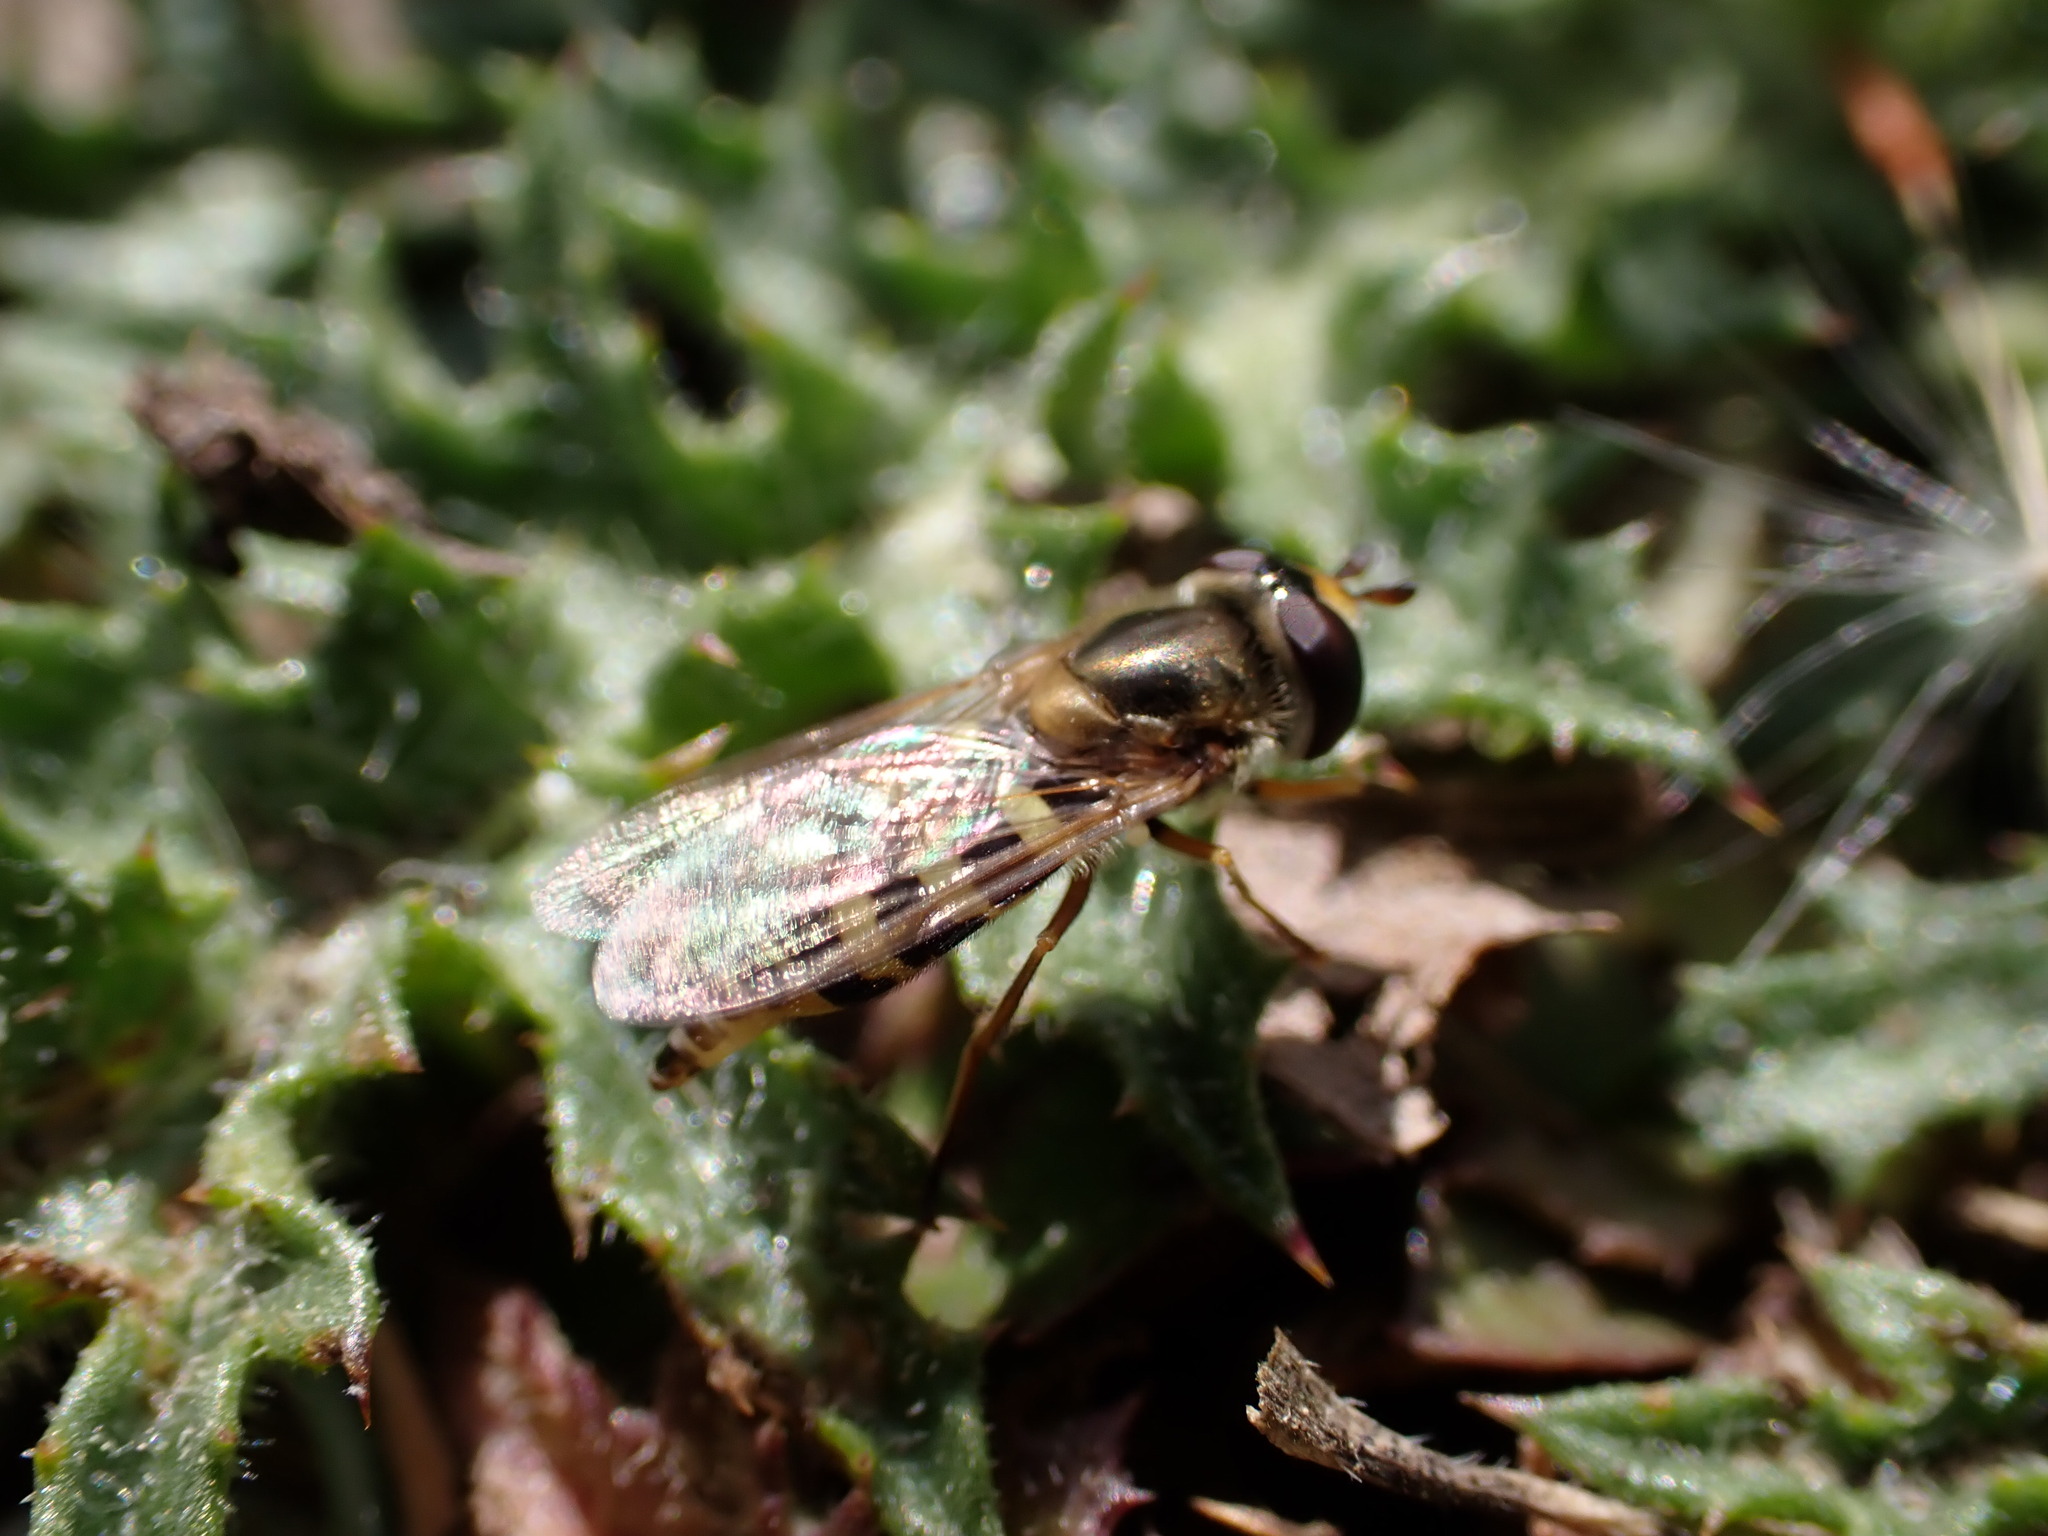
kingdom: Animalia
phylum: Arthropoda
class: Insecta
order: Diptera
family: Syrphidae
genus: Eupeodes
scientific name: Eupeodes corollae
